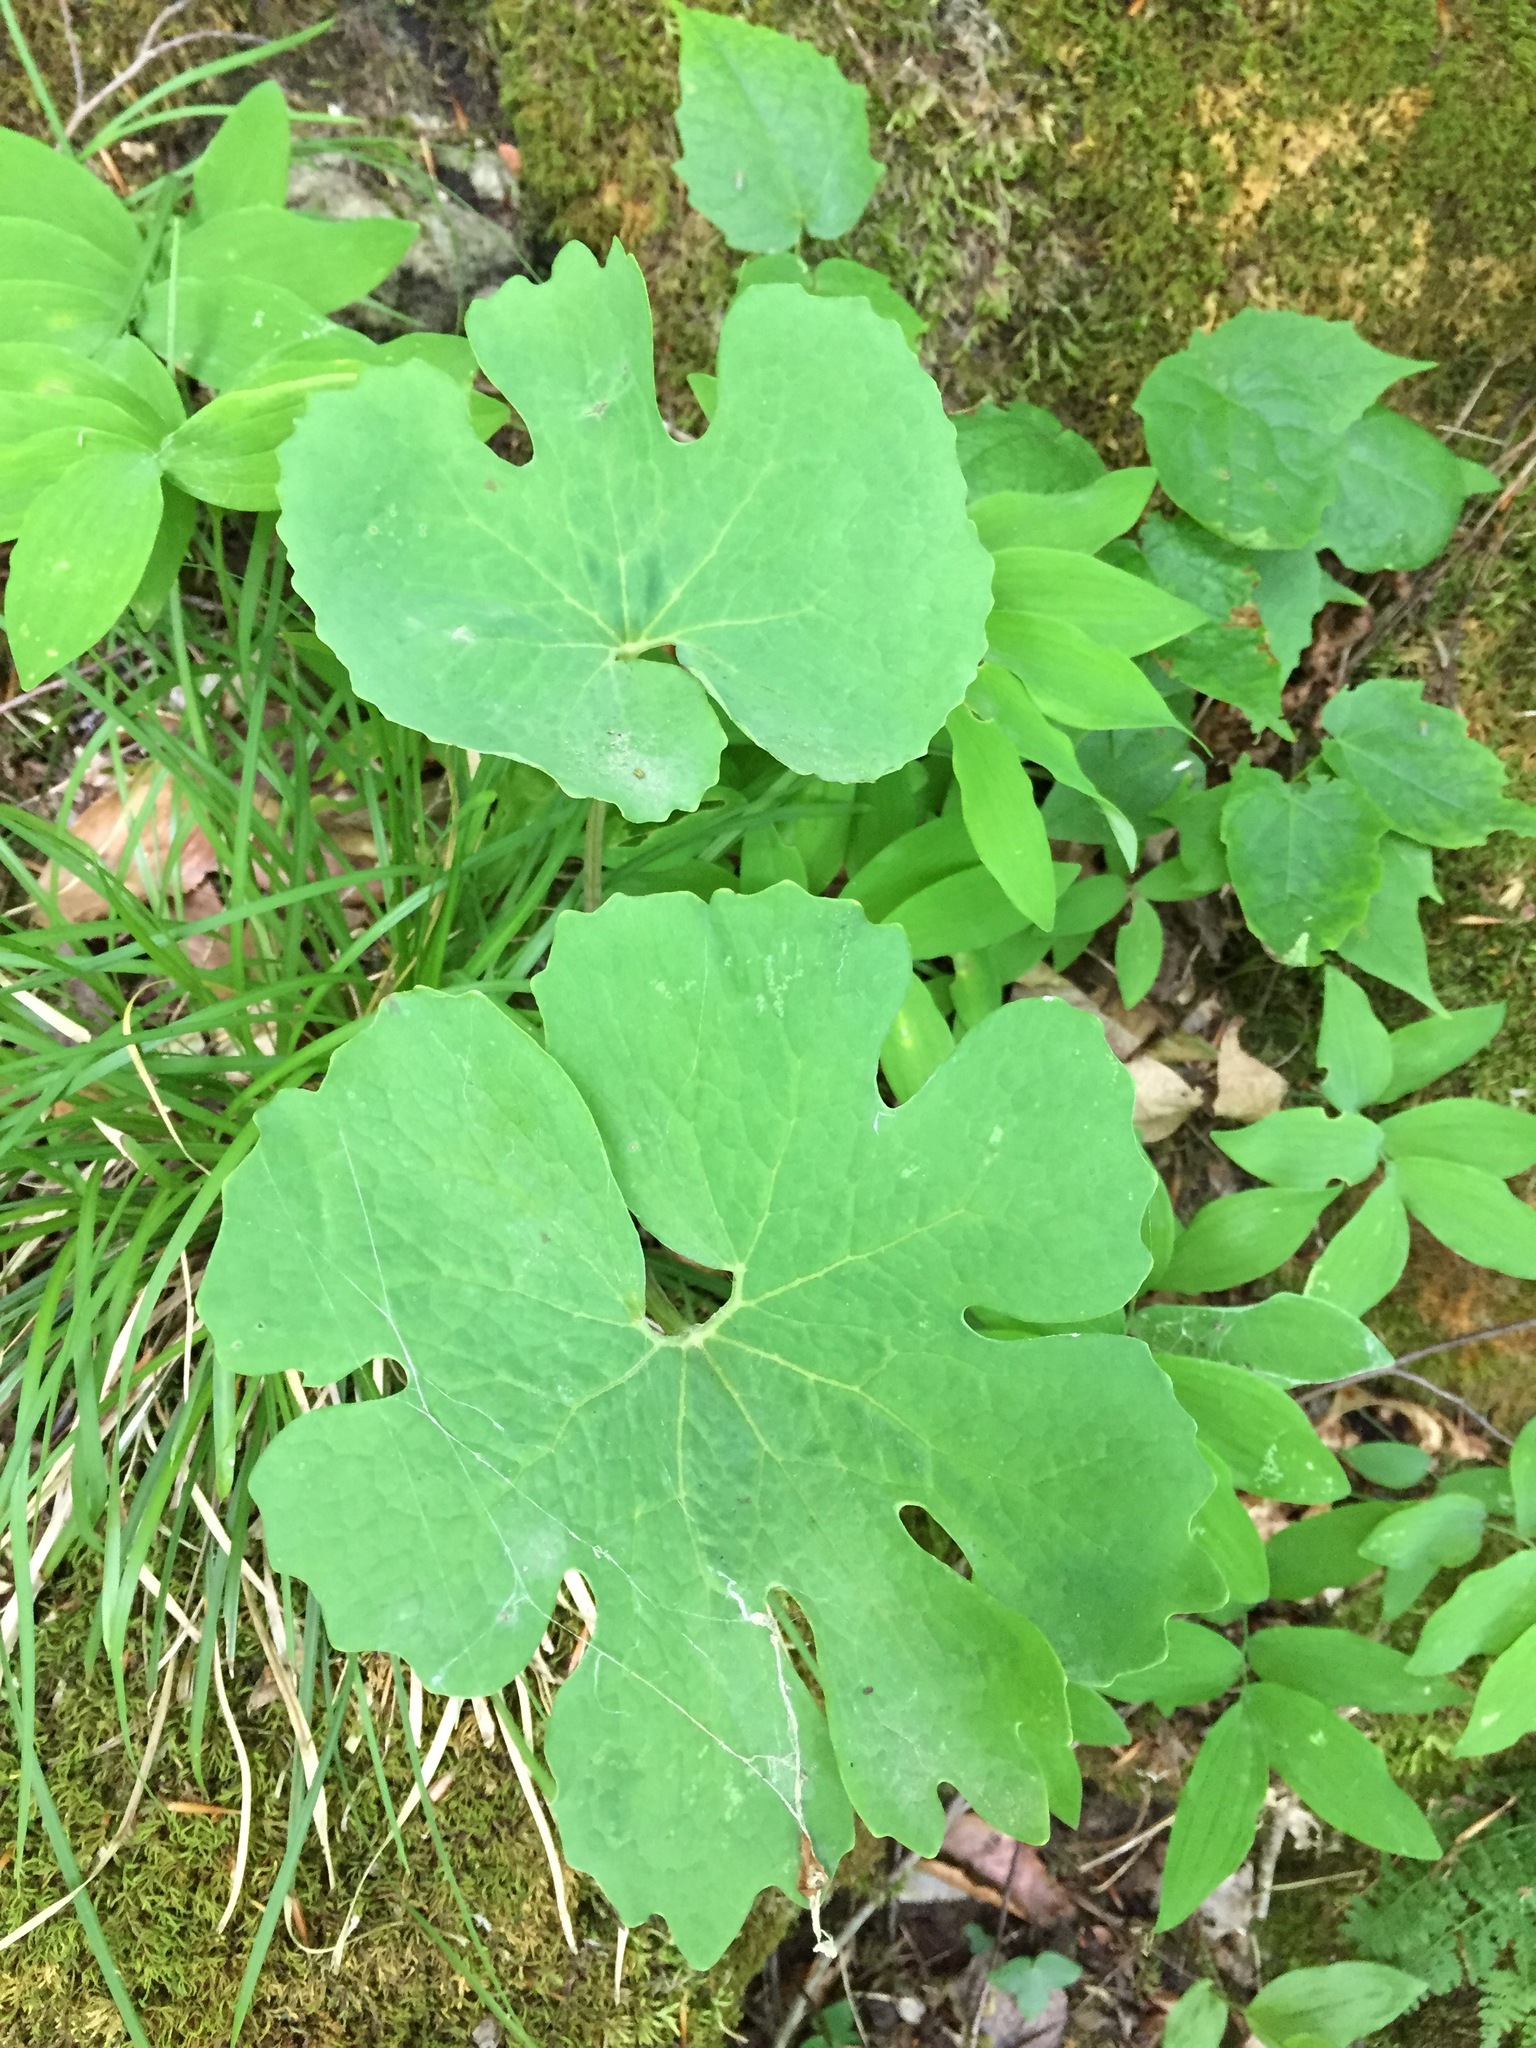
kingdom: Plantae
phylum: Tracheophyta
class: Magnoliopsida
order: Ranunculales
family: Papaveraceae
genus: Sanguinaria
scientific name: Sanguinaria canadensis
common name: Bloodroot
